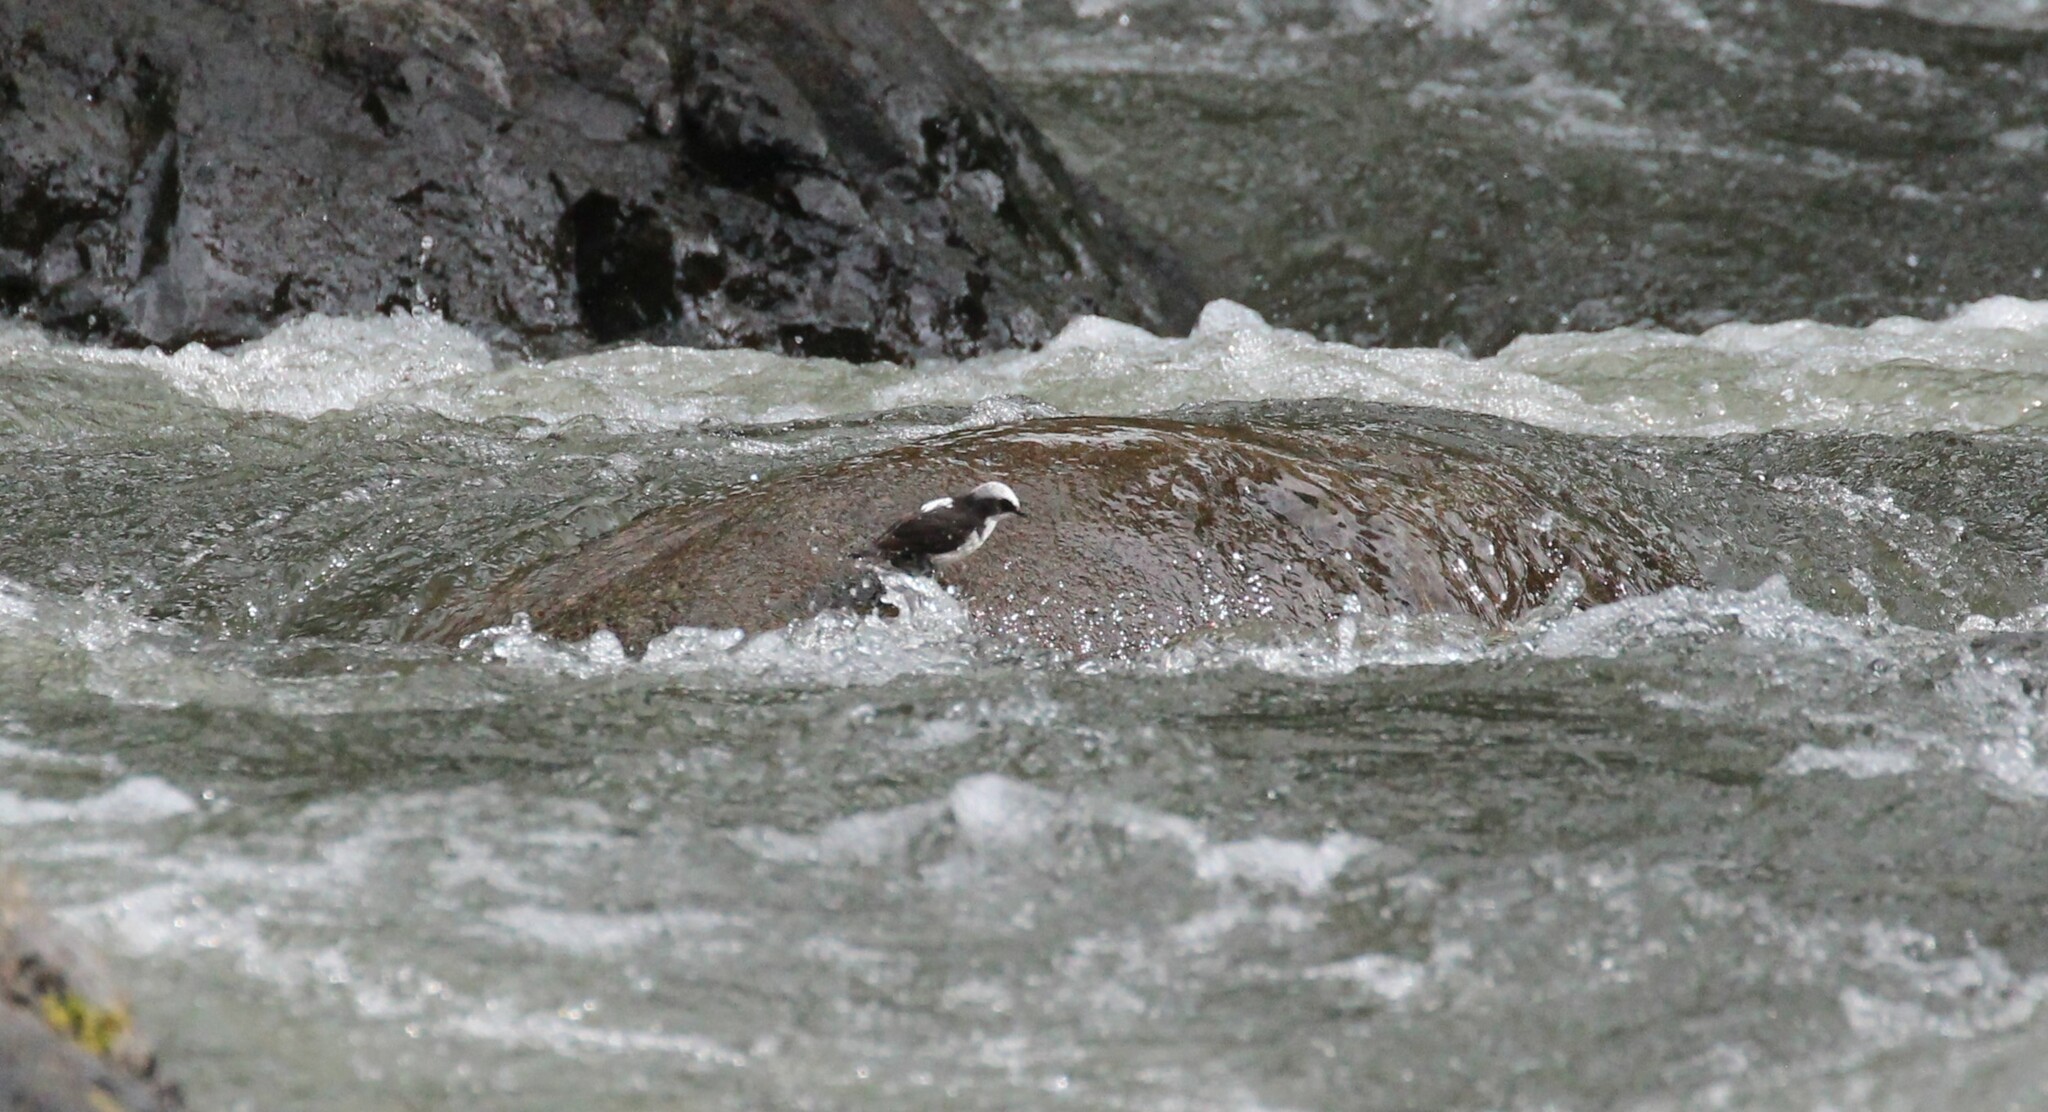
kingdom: Animalia
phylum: Chordata
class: Aves
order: Passeriformes
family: Cinclidae
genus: Cinclus
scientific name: Cinclus leucocephalus
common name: White-capped dipper
